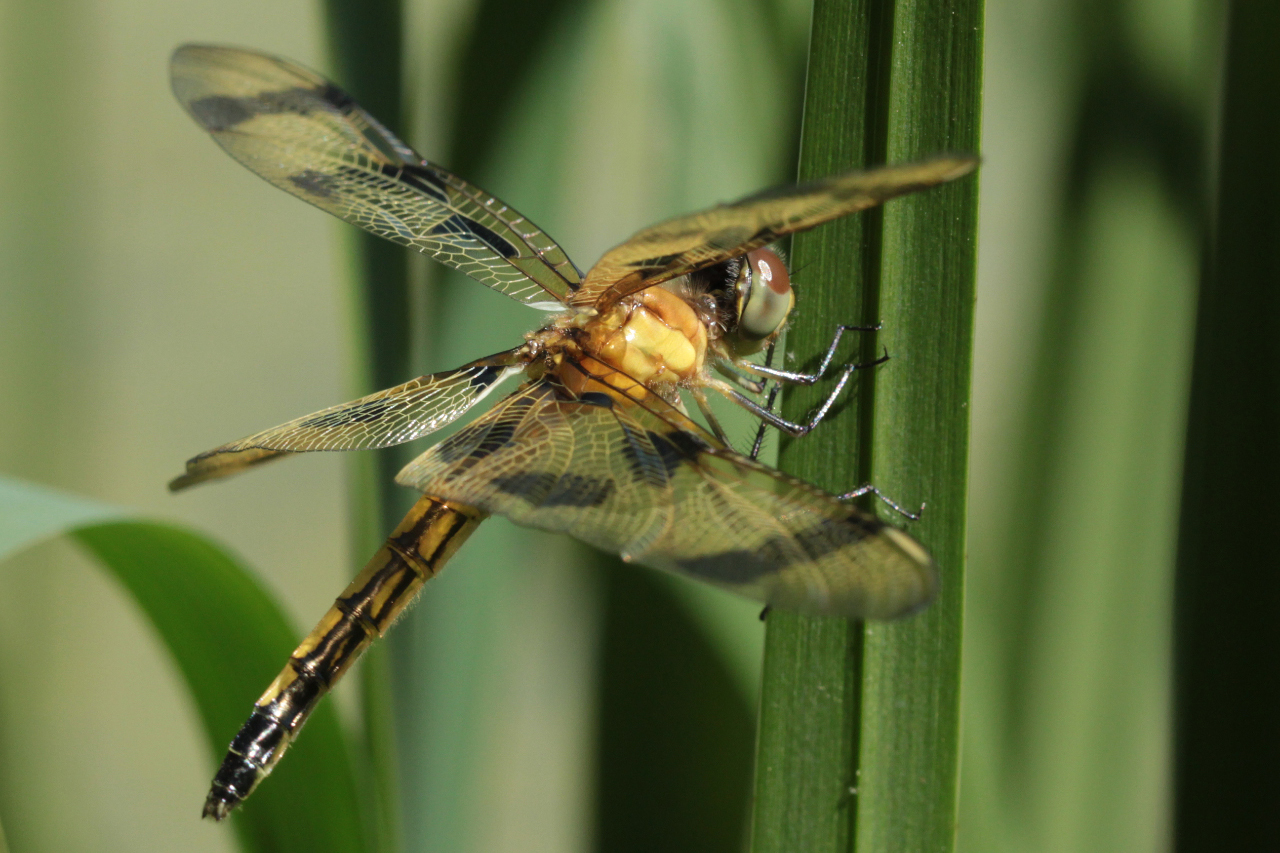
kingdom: Animalia
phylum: Arthropoda
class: Insecta
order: Odonata
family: Libellulidae
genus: Celithemis
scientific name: Celithemis eponina
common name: Halloween pennant
